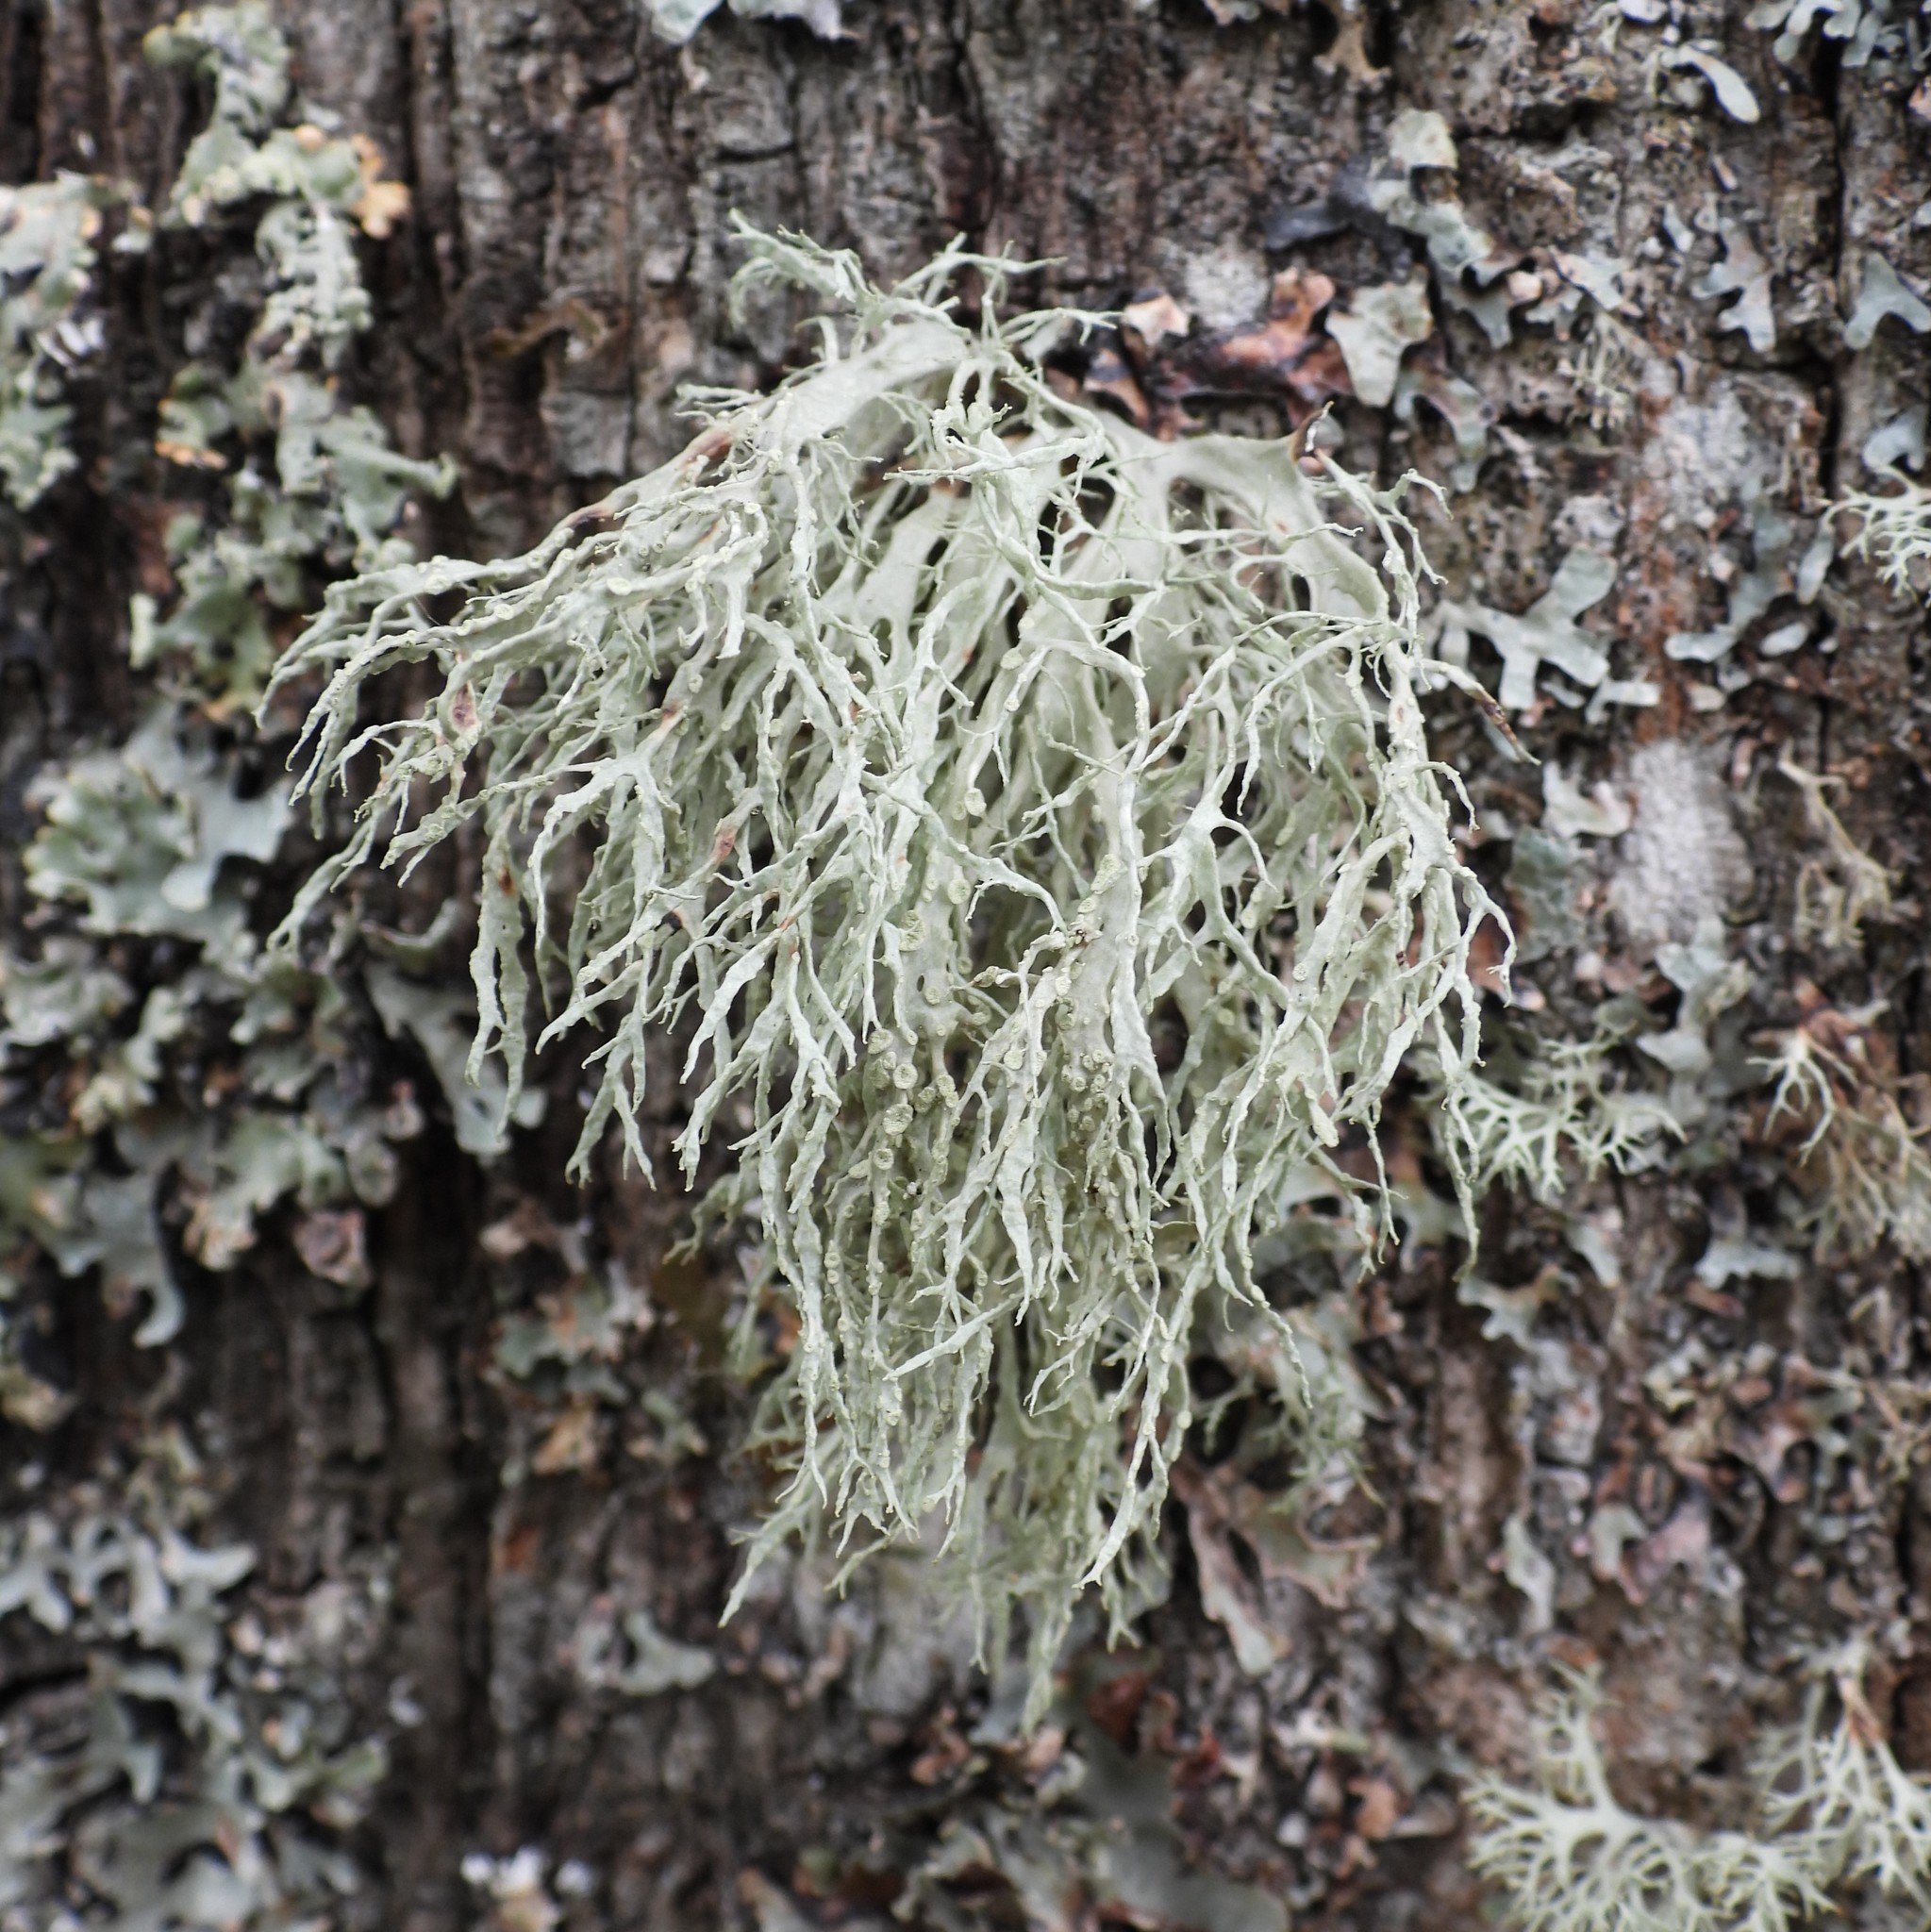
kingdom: Fungi
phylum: Ascomycota
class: Lecanoromycetes
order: Lecanorales
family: Ramalinaceae
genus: Ramalina
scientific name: Ramalina farinacea
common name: Farinose cartilage lichen
